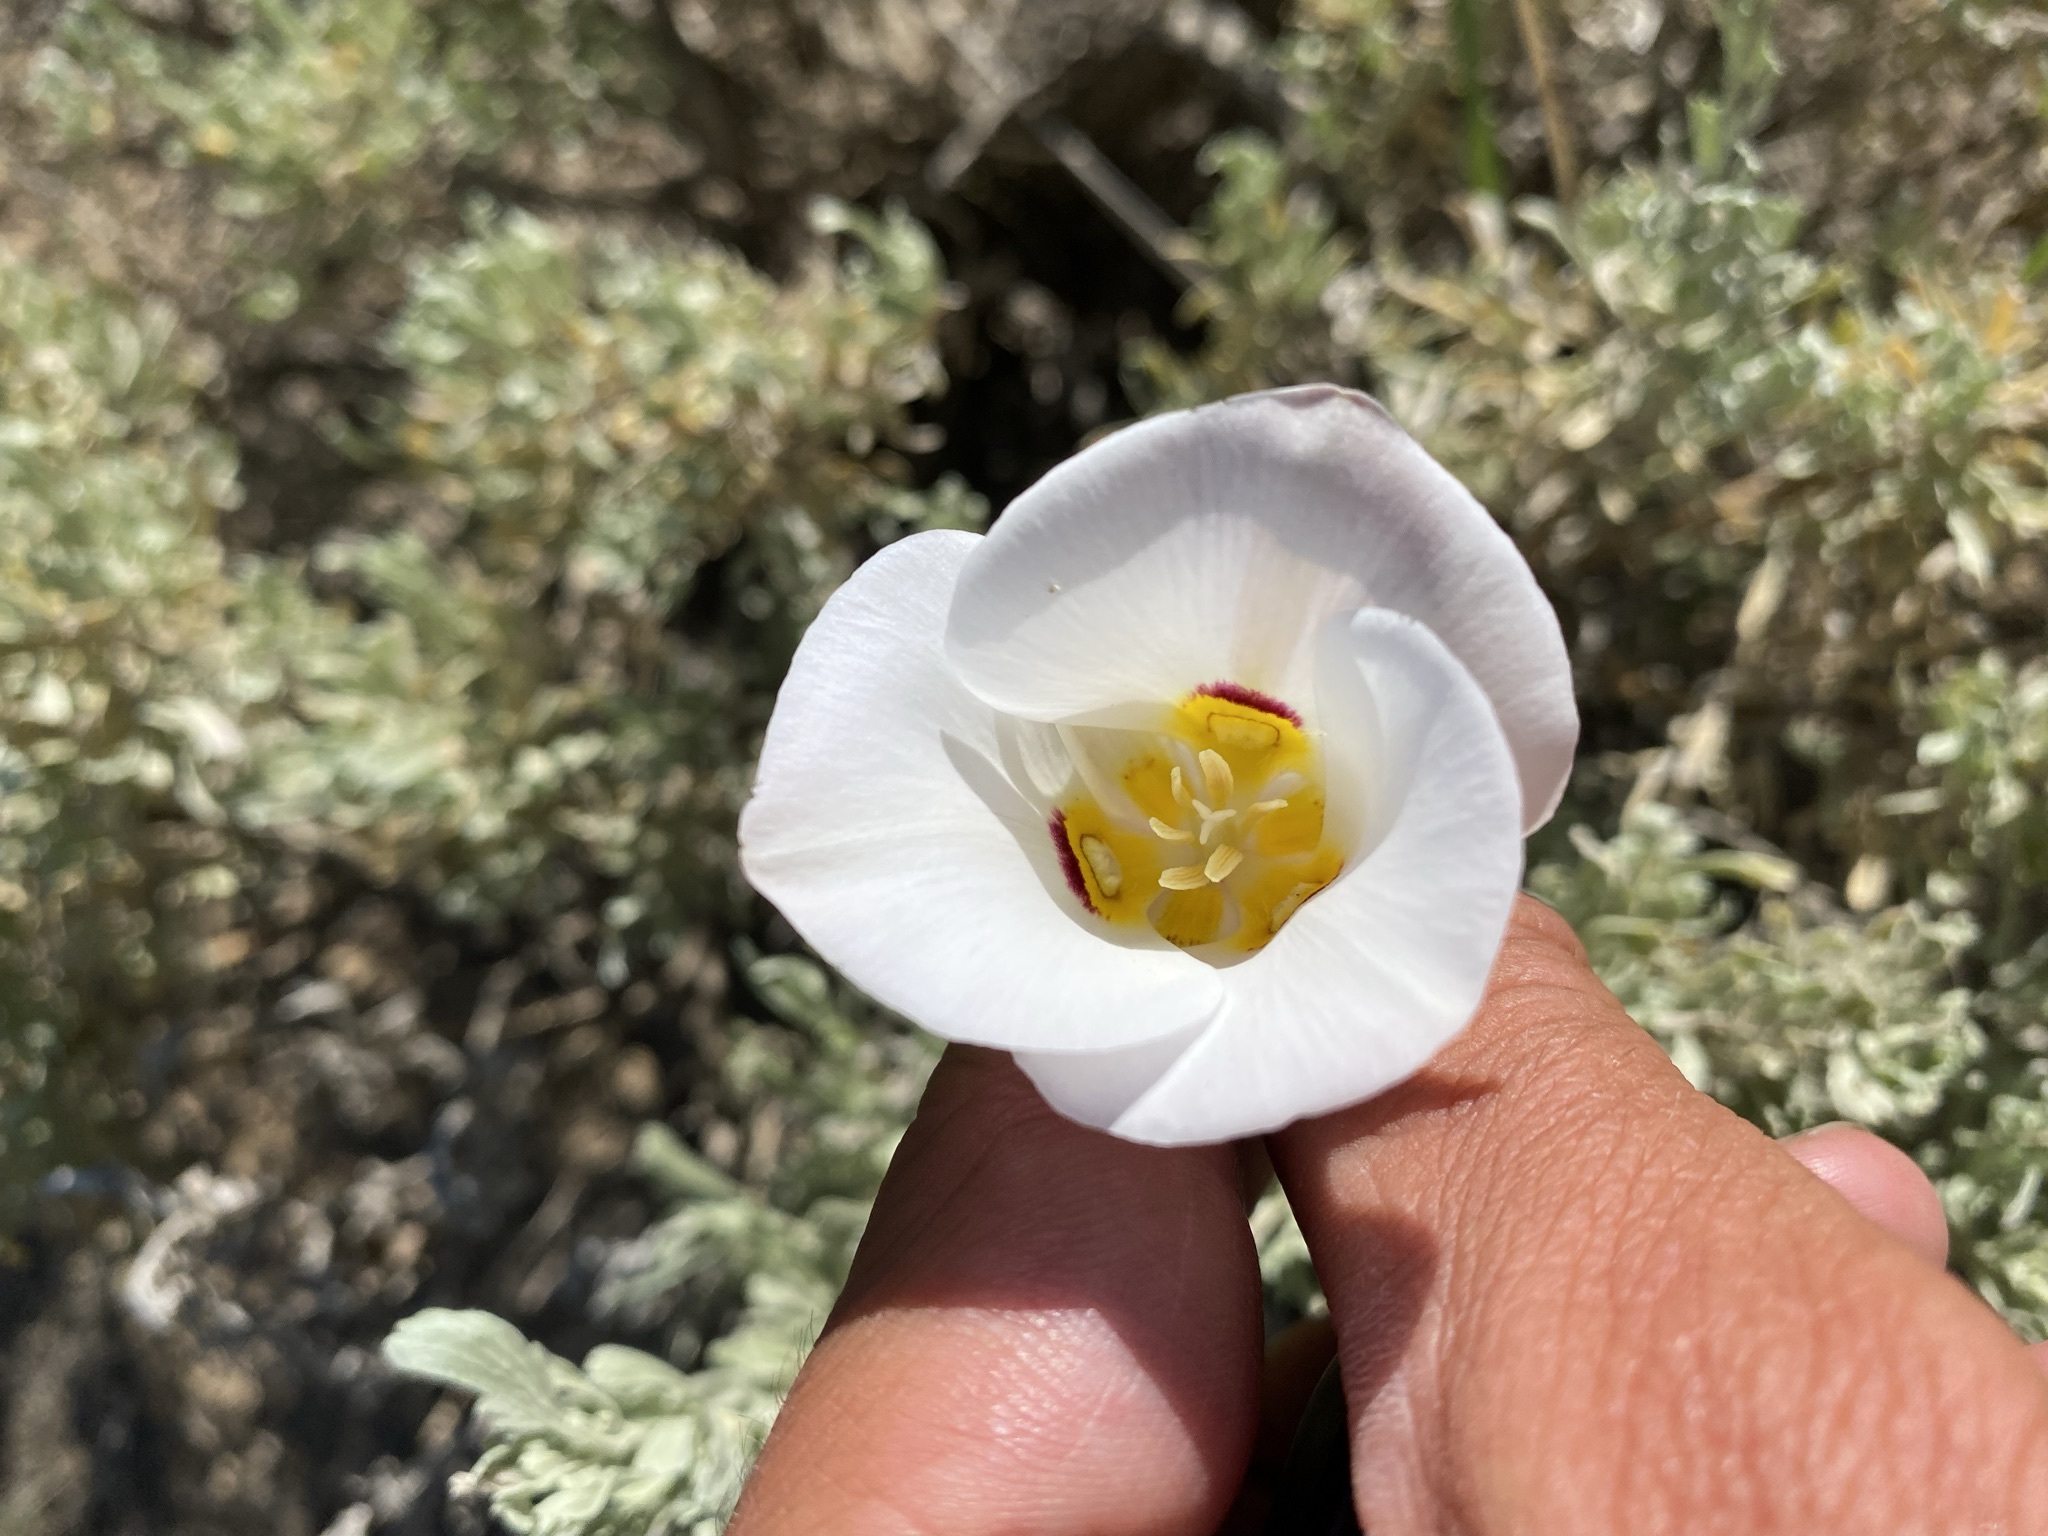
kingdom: Plantae
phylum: Tracheophyta
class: Liliopsida
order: Liliales
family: Liliaceae
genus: Calochortus
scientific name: Calochortus nuttallii
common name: Sego-lily
